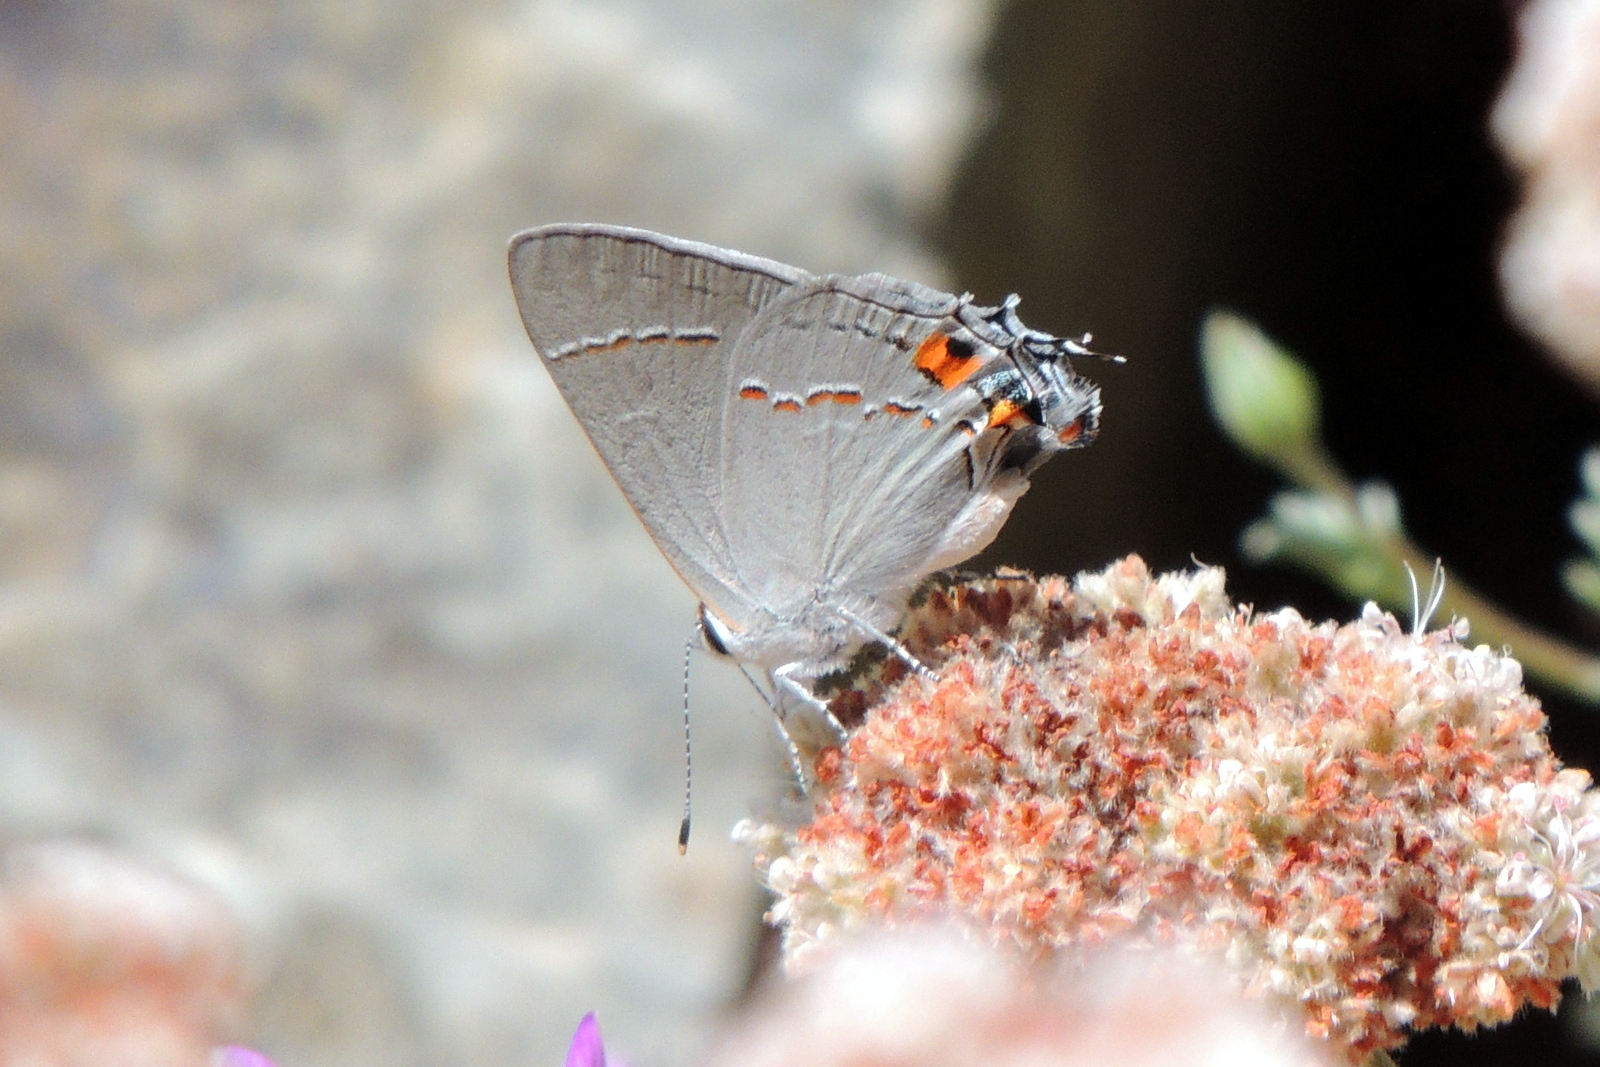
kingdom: Animalia
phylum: Arthropoda
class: Insecta
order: Lepidoptera
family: Lycaenidae
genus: Strymon
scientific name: Strymon melinus
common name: Gray hairstreak
